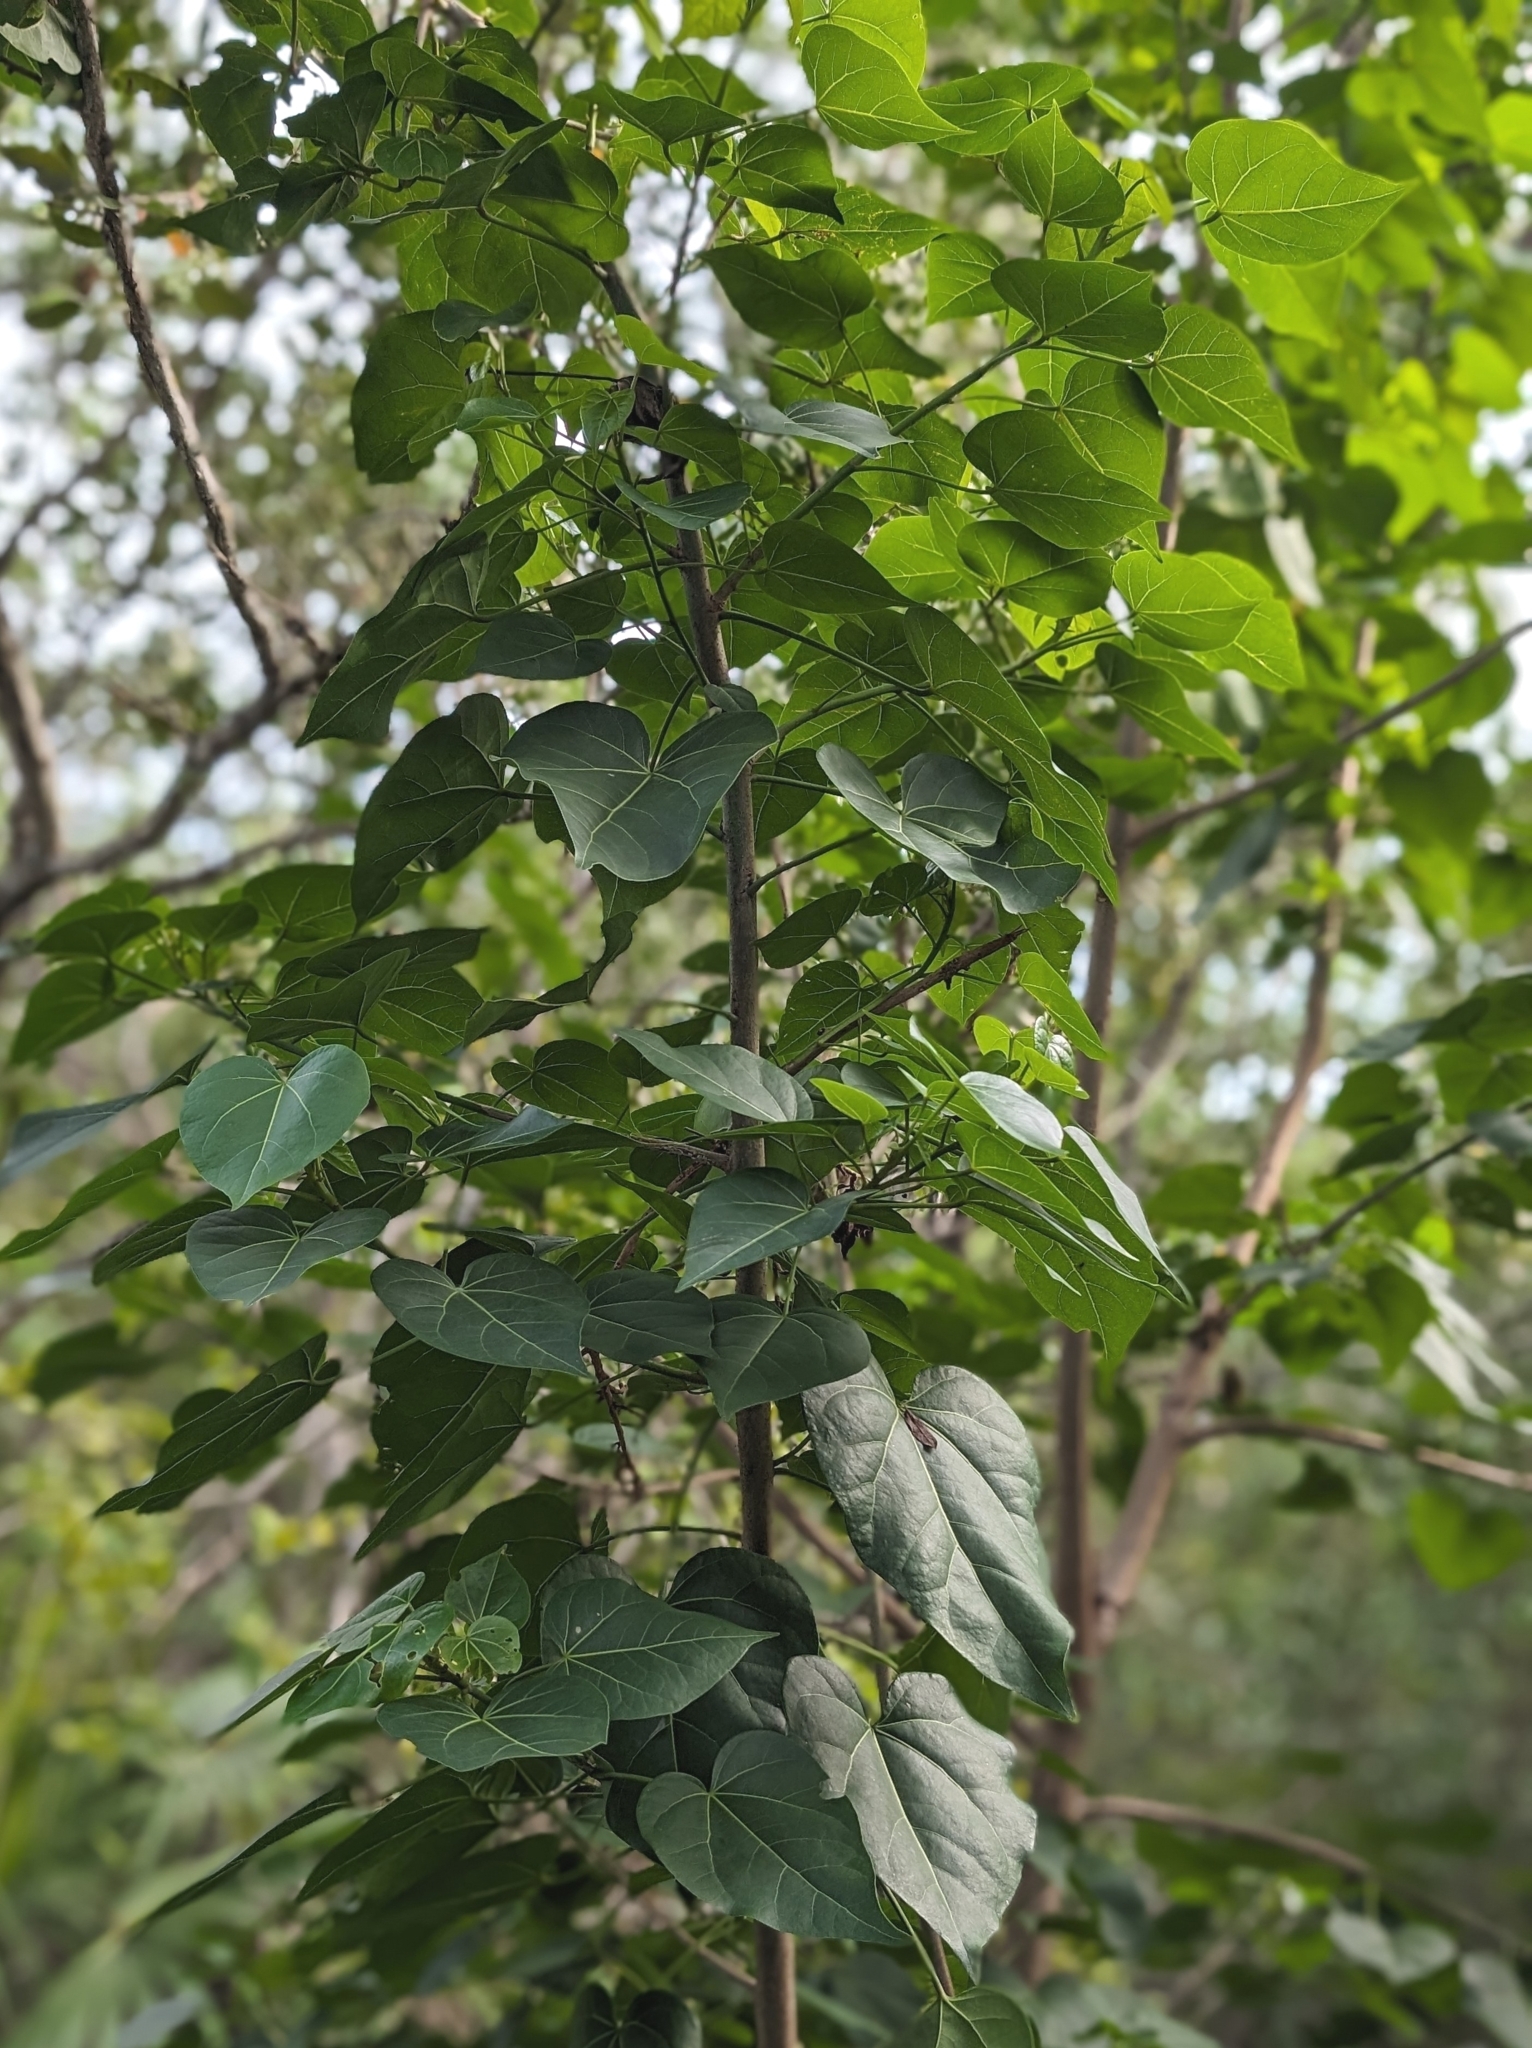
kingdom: Plantae
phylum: Tracheophyta
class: Magnoliopsida
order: Malvales
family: Malvaceae
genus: Thespesia
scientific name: Thespesia populnea
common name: Seaside mahoe
